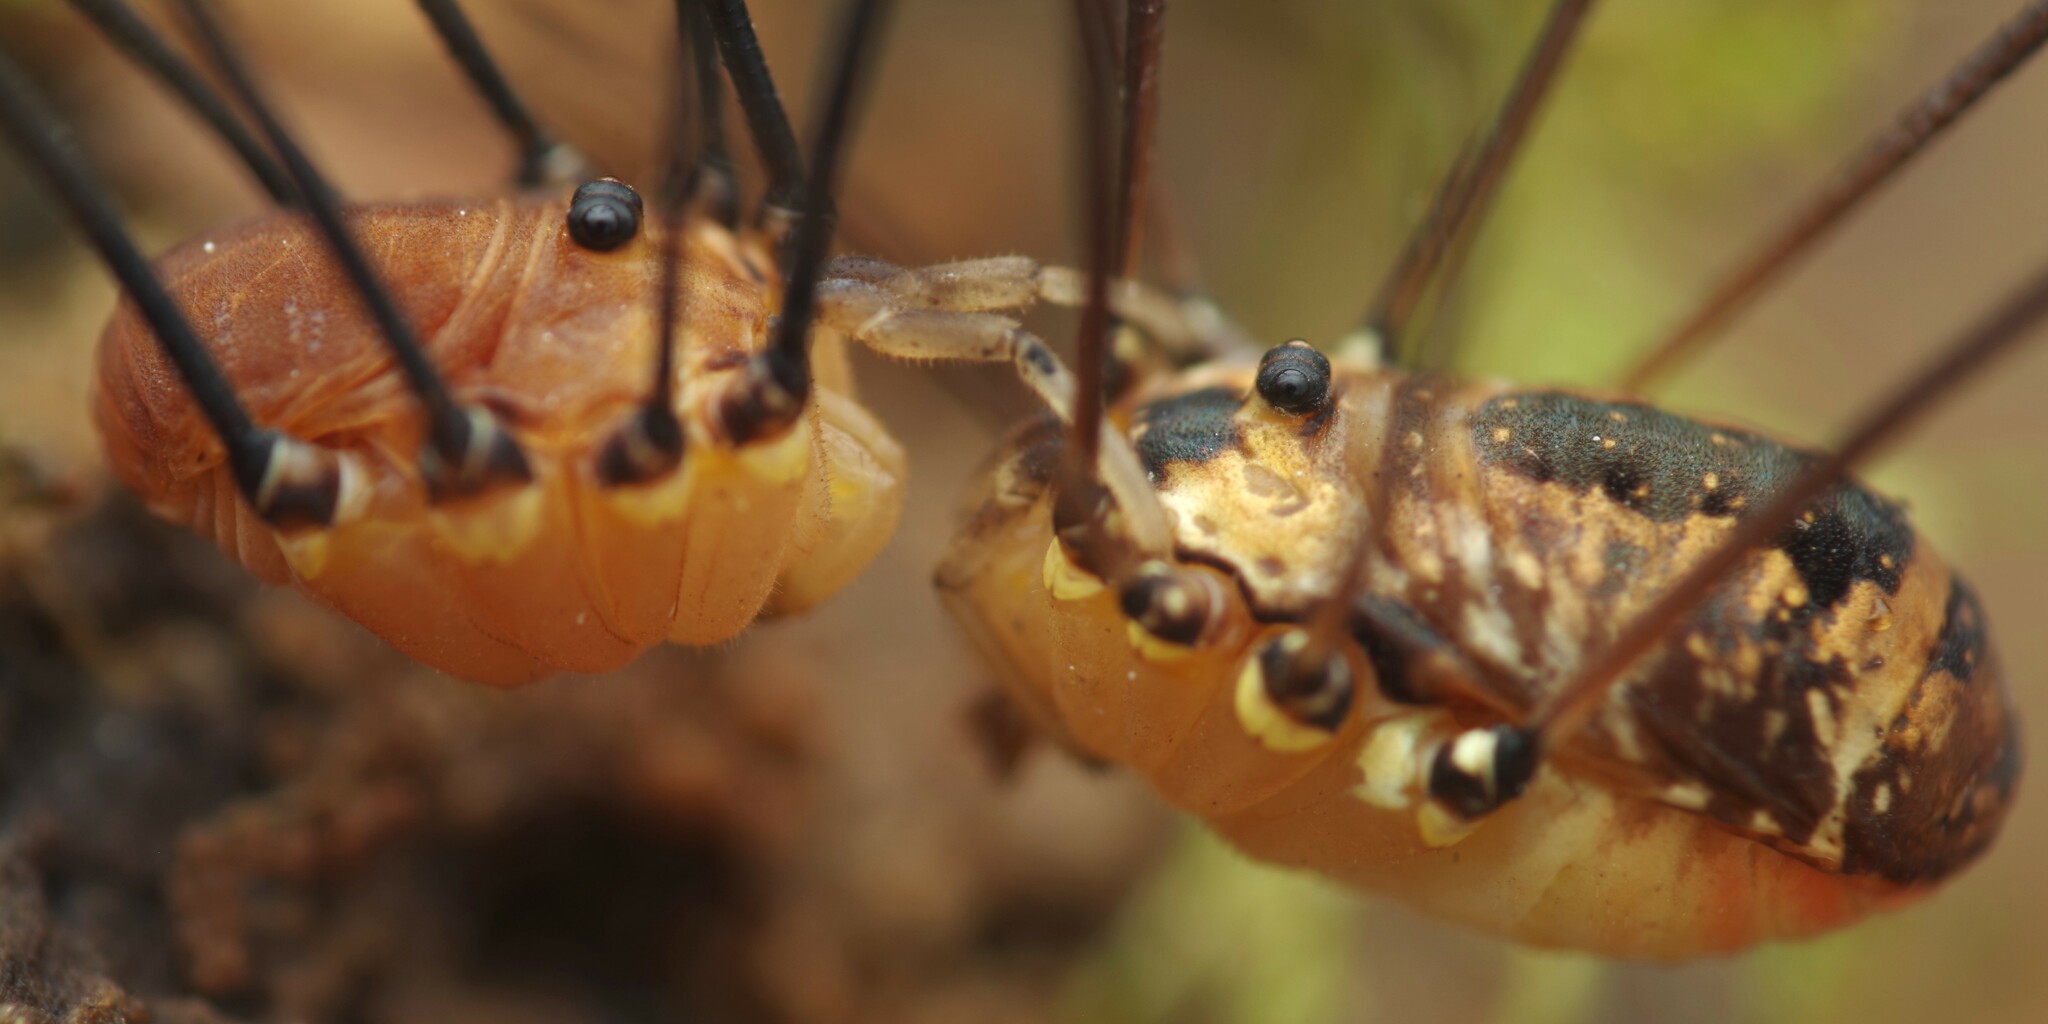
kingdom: Animalia
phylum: Arthropoda
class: Arachnida
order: Opiliones
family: Sclerosomatidae
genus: Leiobunum
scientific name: Leiobunum rotundum
